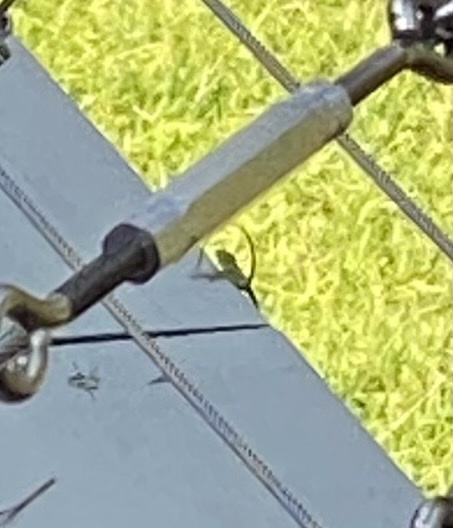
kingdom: Animalia
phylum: Chordata
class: Squamata
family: Dactyloidae
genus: Anolis
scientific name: Anolis
